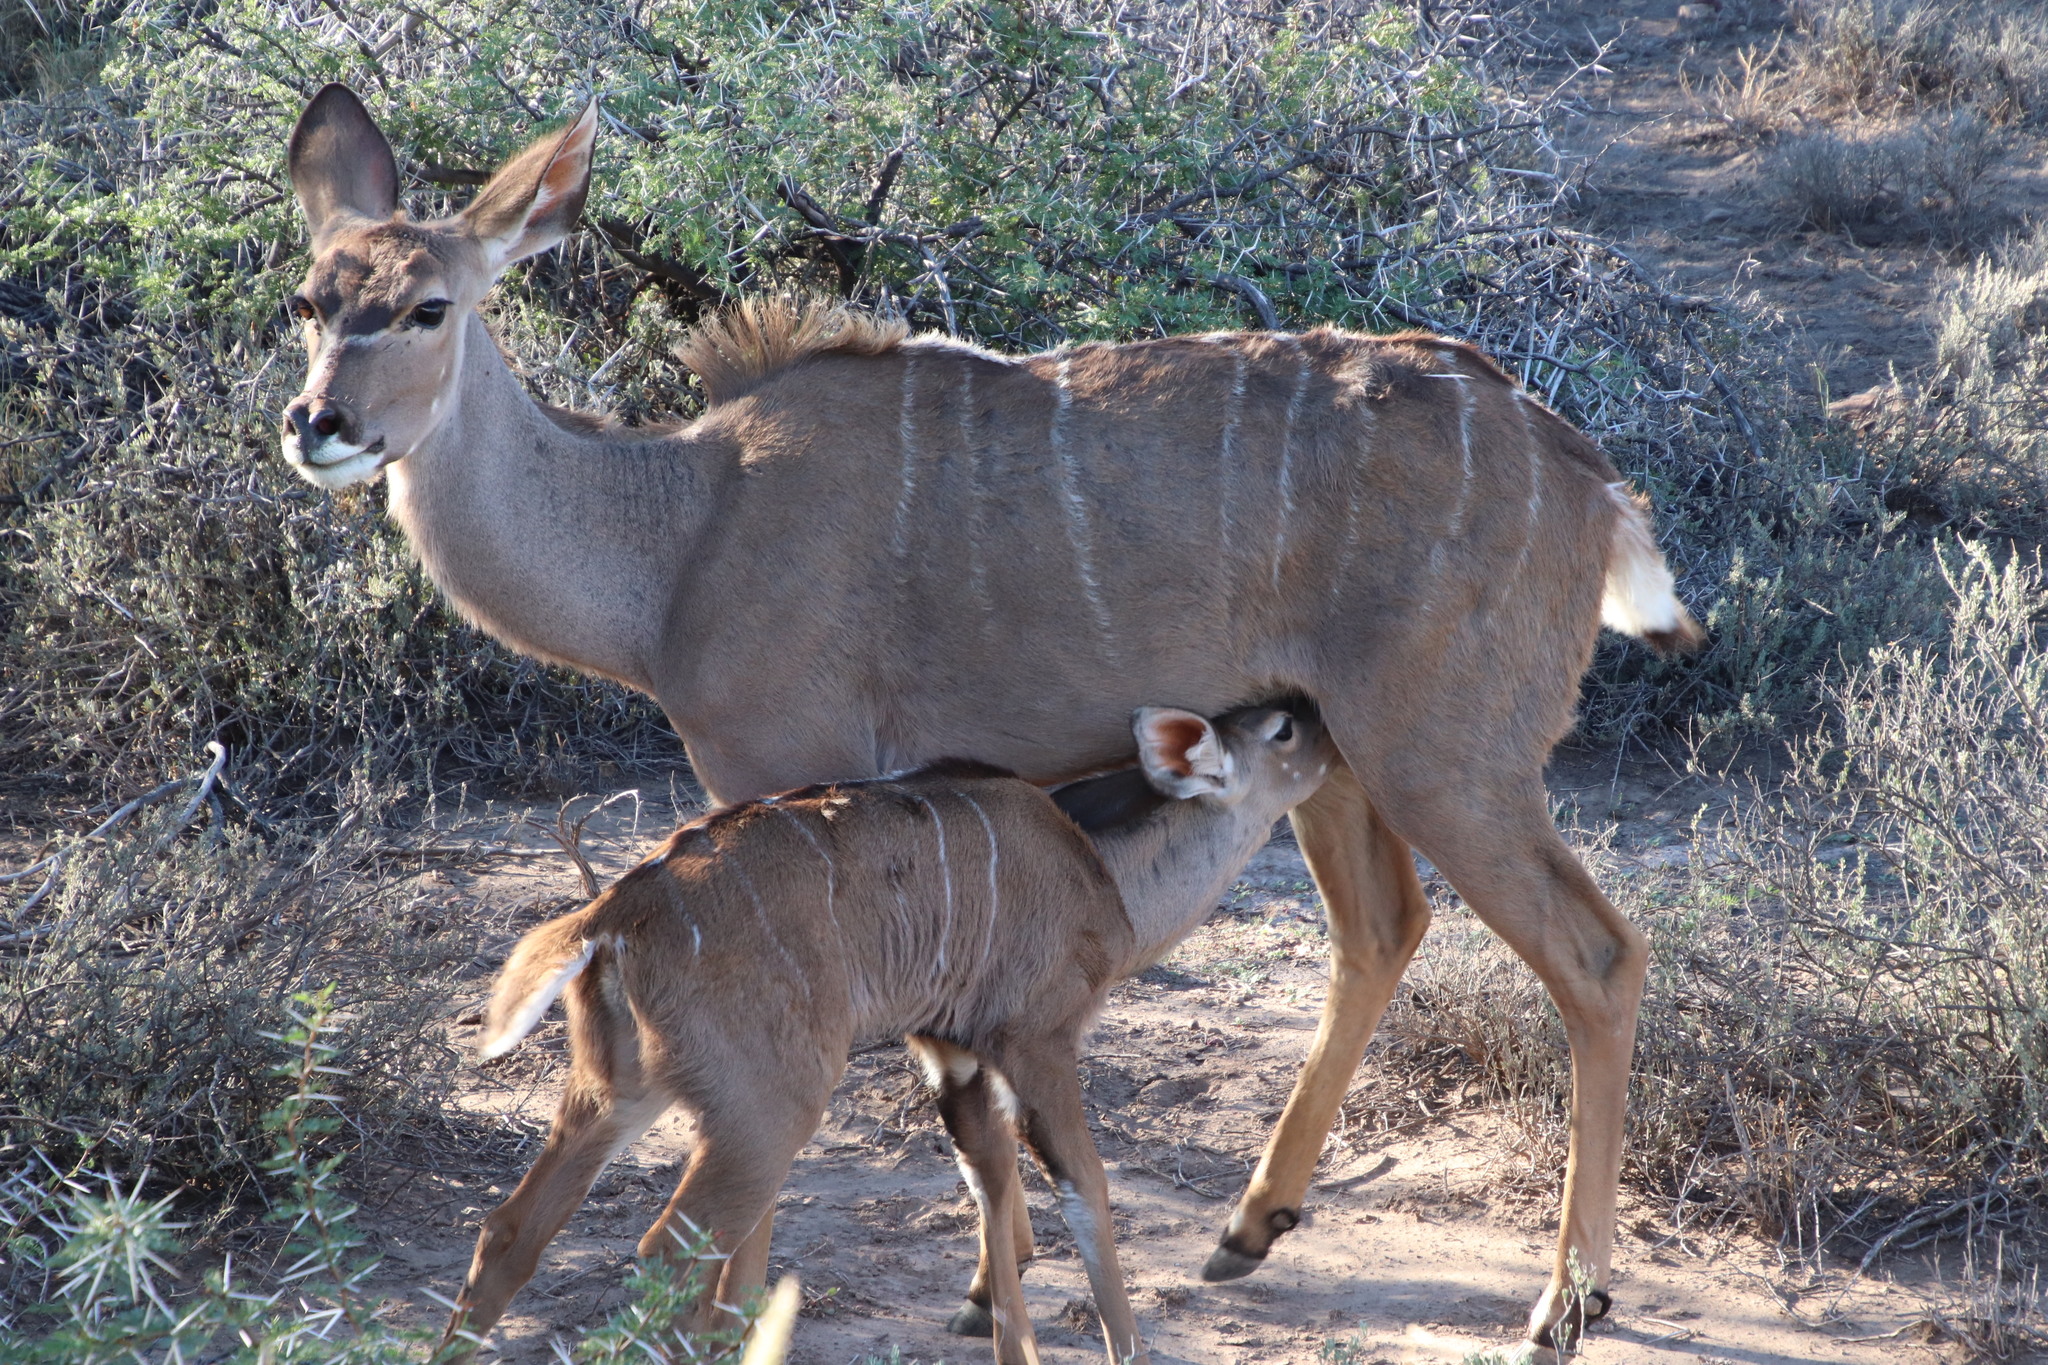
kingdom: Animalia
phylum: Chordata
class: Mammalia
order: Artiodactyla
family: Bovidae
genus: Tragelaphus
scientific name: Tragelaphus strepsiceros
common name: Greater kudu
